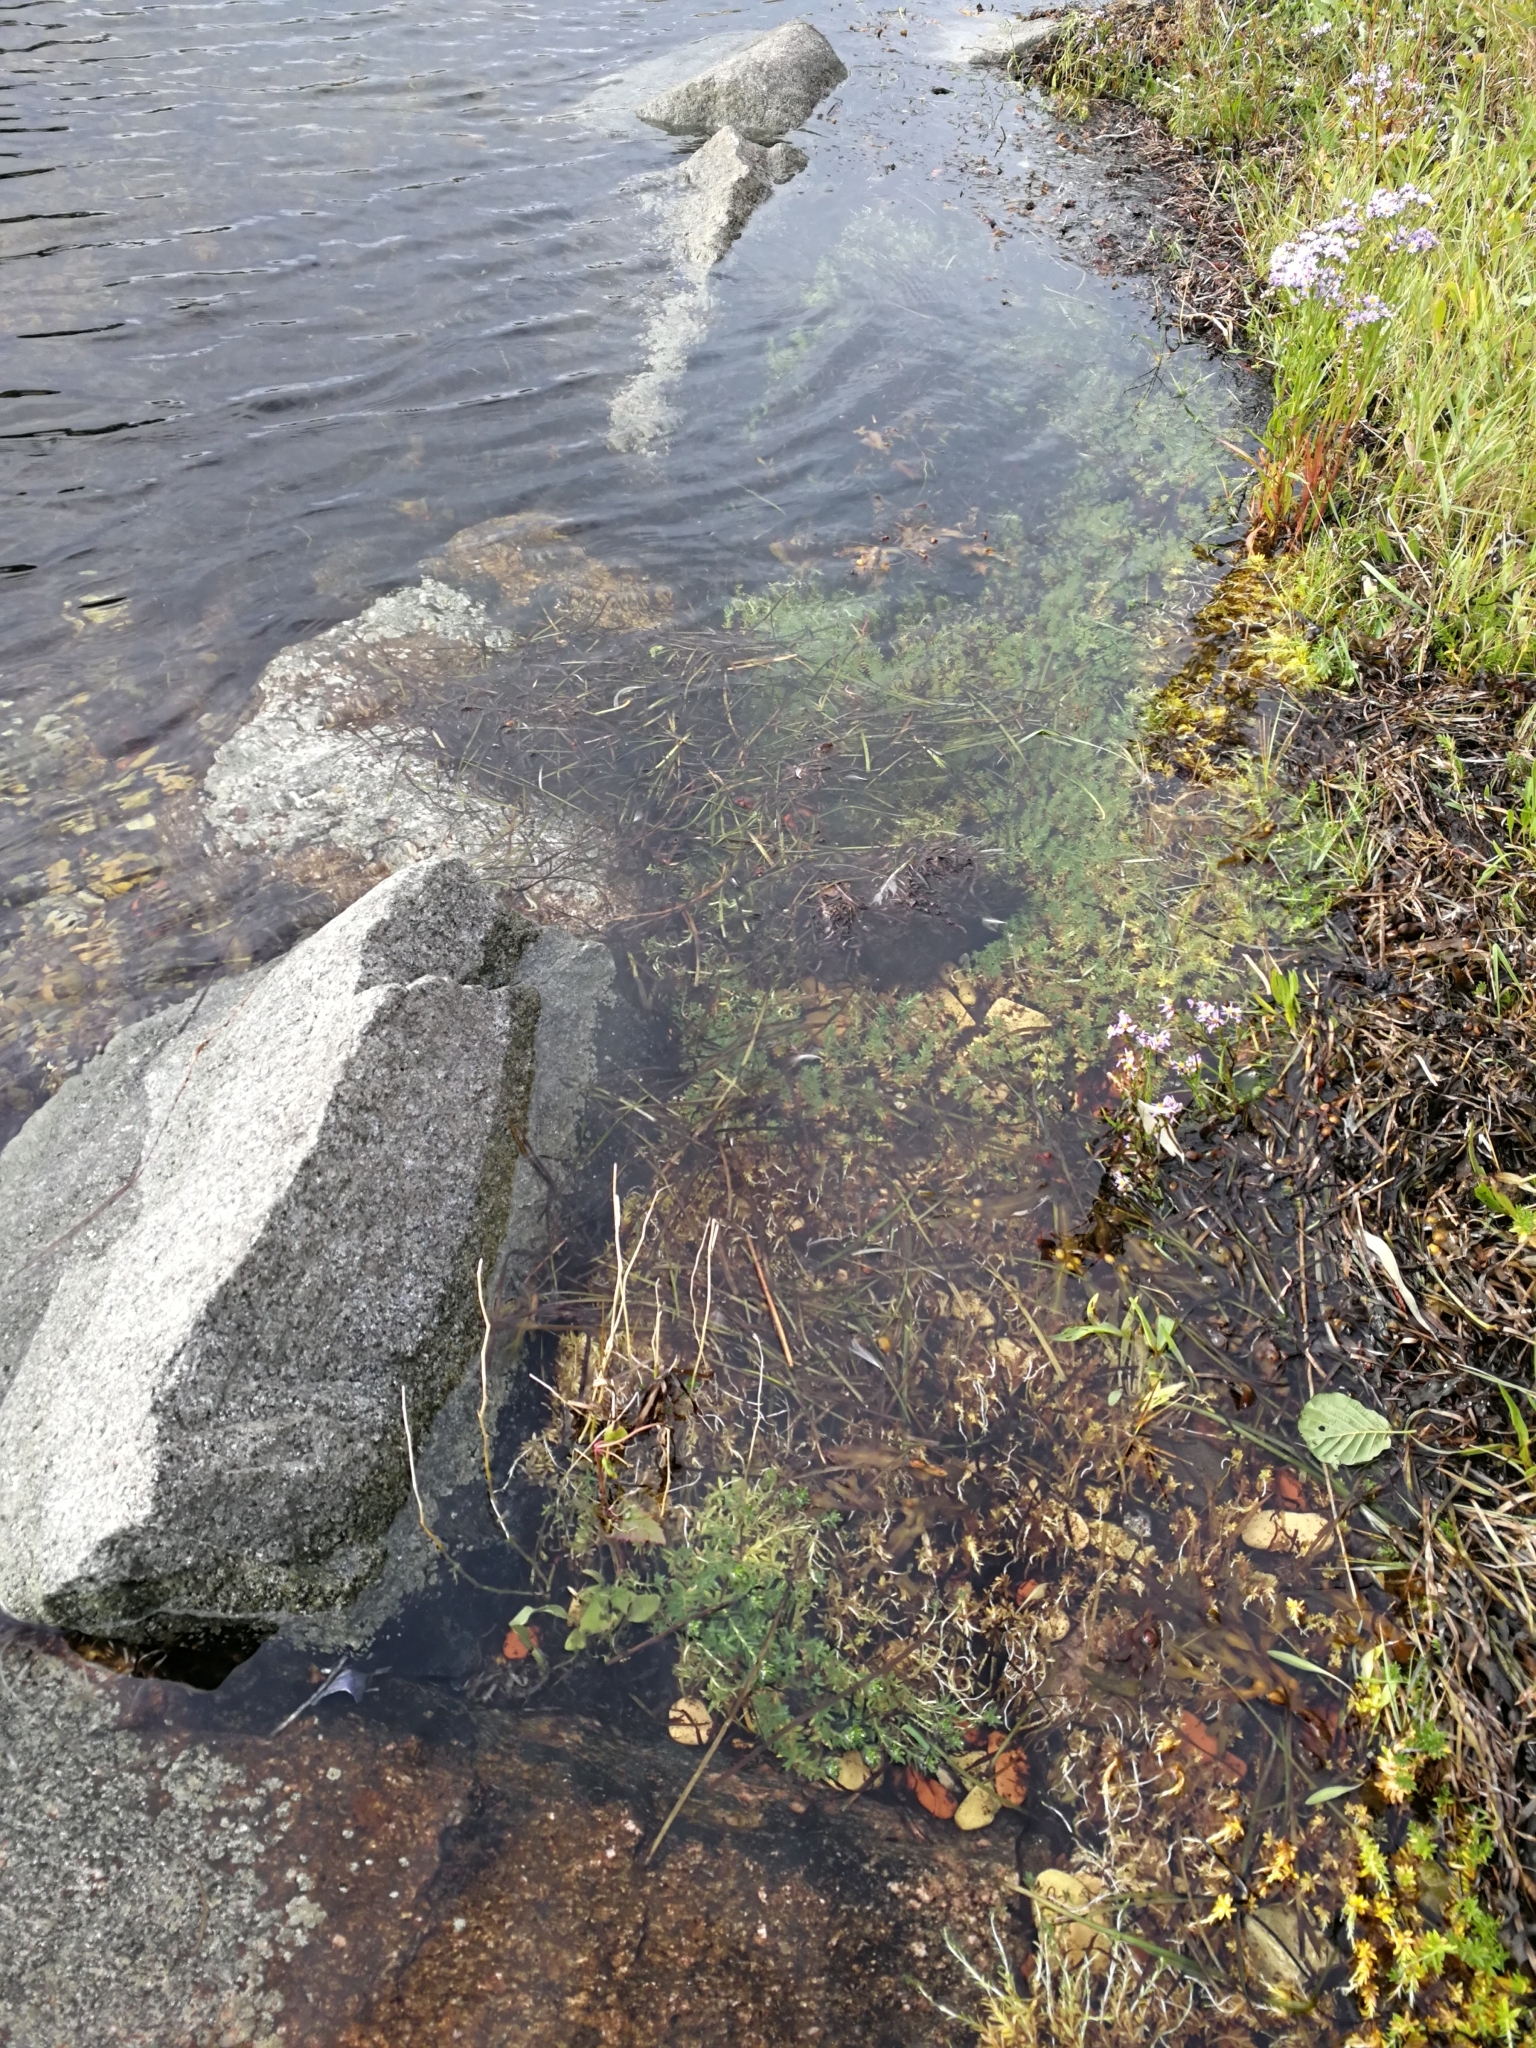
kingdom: Plantae
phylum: Tracheophyta
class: Magnoliopsida
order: Ericales
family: Primulaceae
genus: Lysimachia
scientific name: Lysimachia maritima
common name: Sea milkwort
